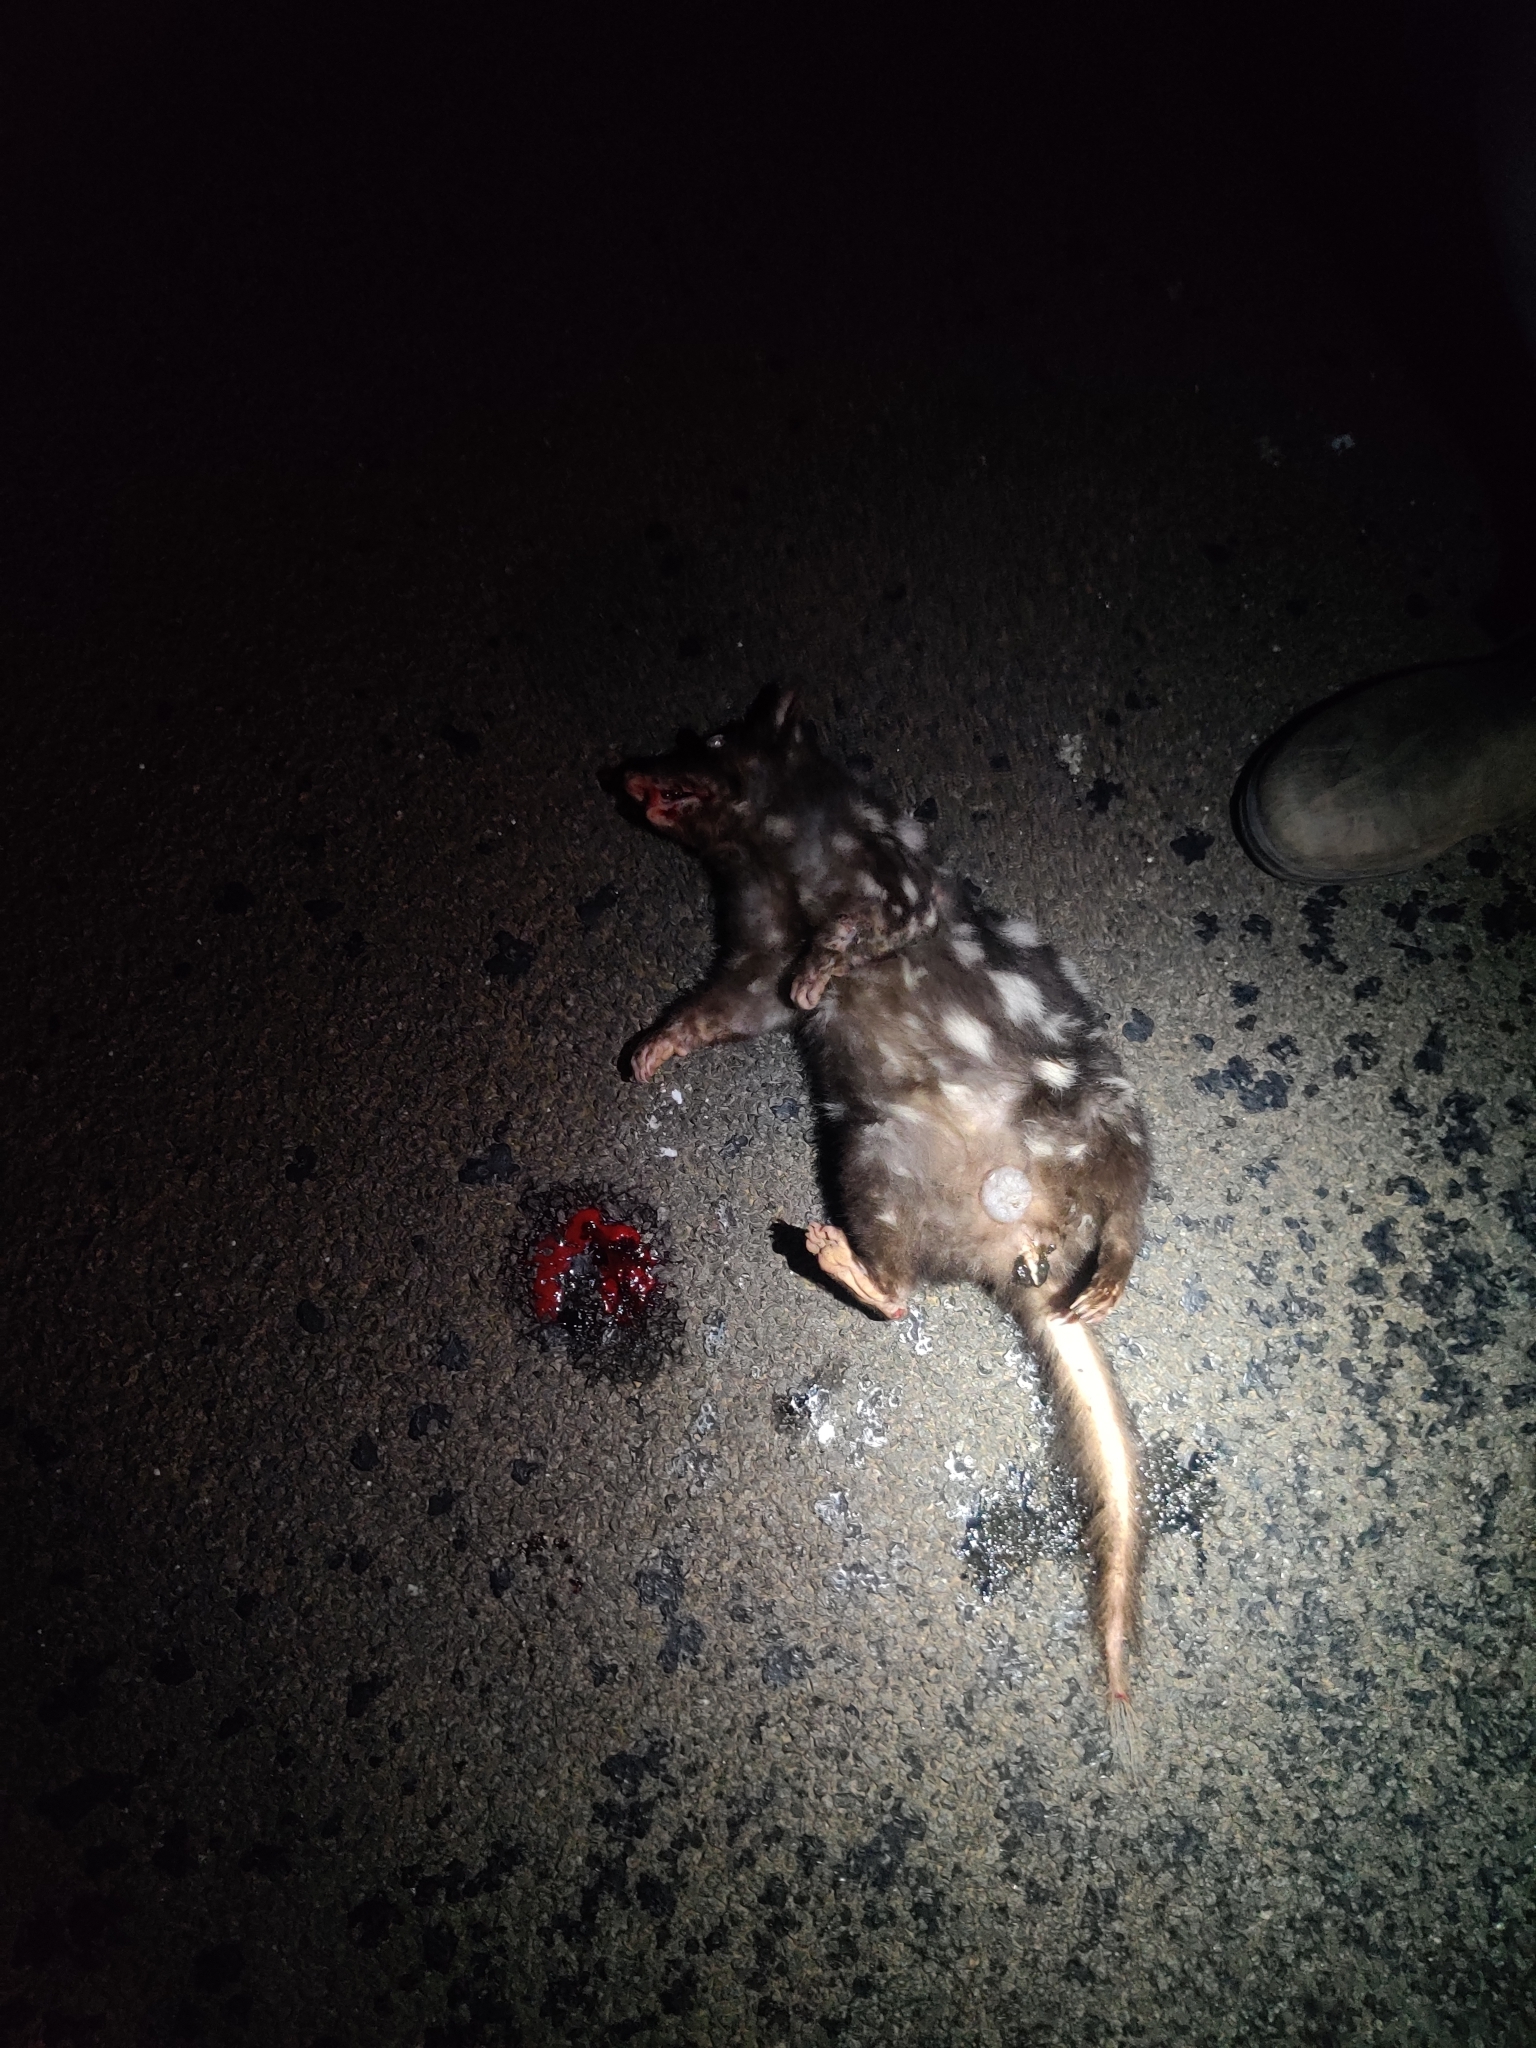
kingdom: Animalia
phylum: Chordata
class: Mammalia
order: Dasyuromorphia
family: Dasyuridae
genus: Dasyurus
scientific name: Dasyurus viverrinus
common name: Eastern quoll
